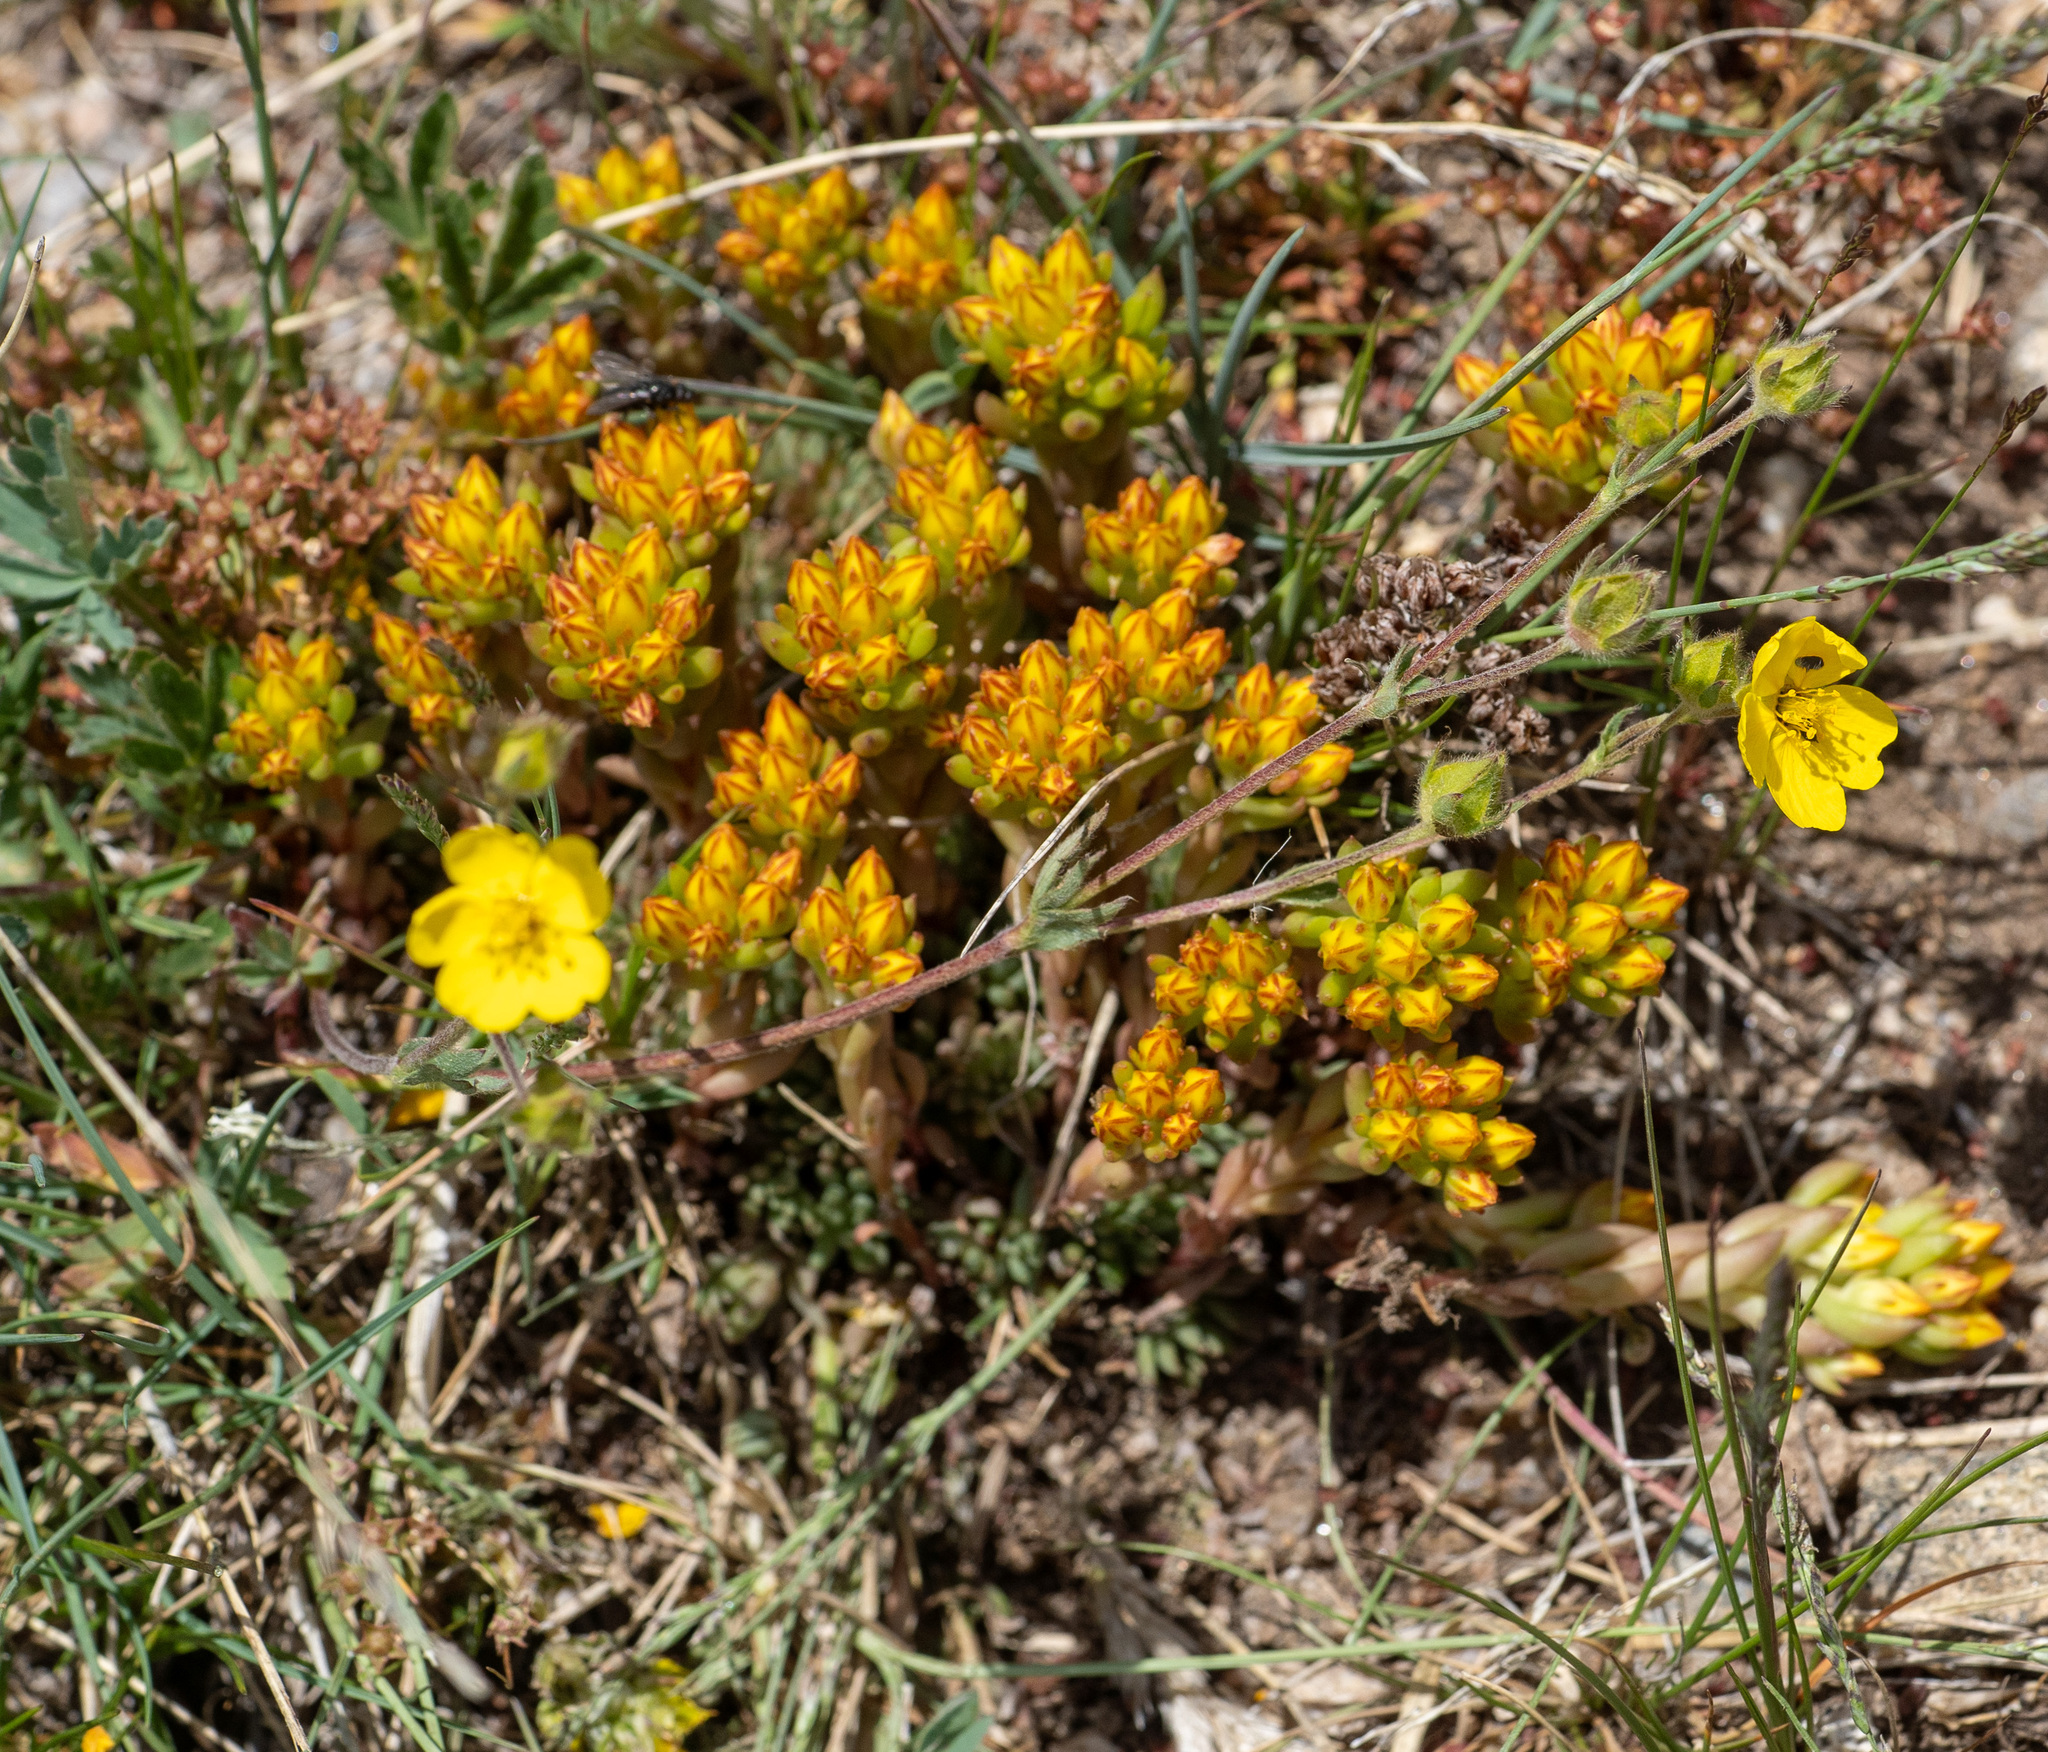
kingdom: Plantae
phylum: Tracheophyta
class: Magnoliopsida
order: Saxifragales
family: Crassulaceae
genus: Sedum
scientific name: Sedum lanceolatum
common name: Common stonecrop
